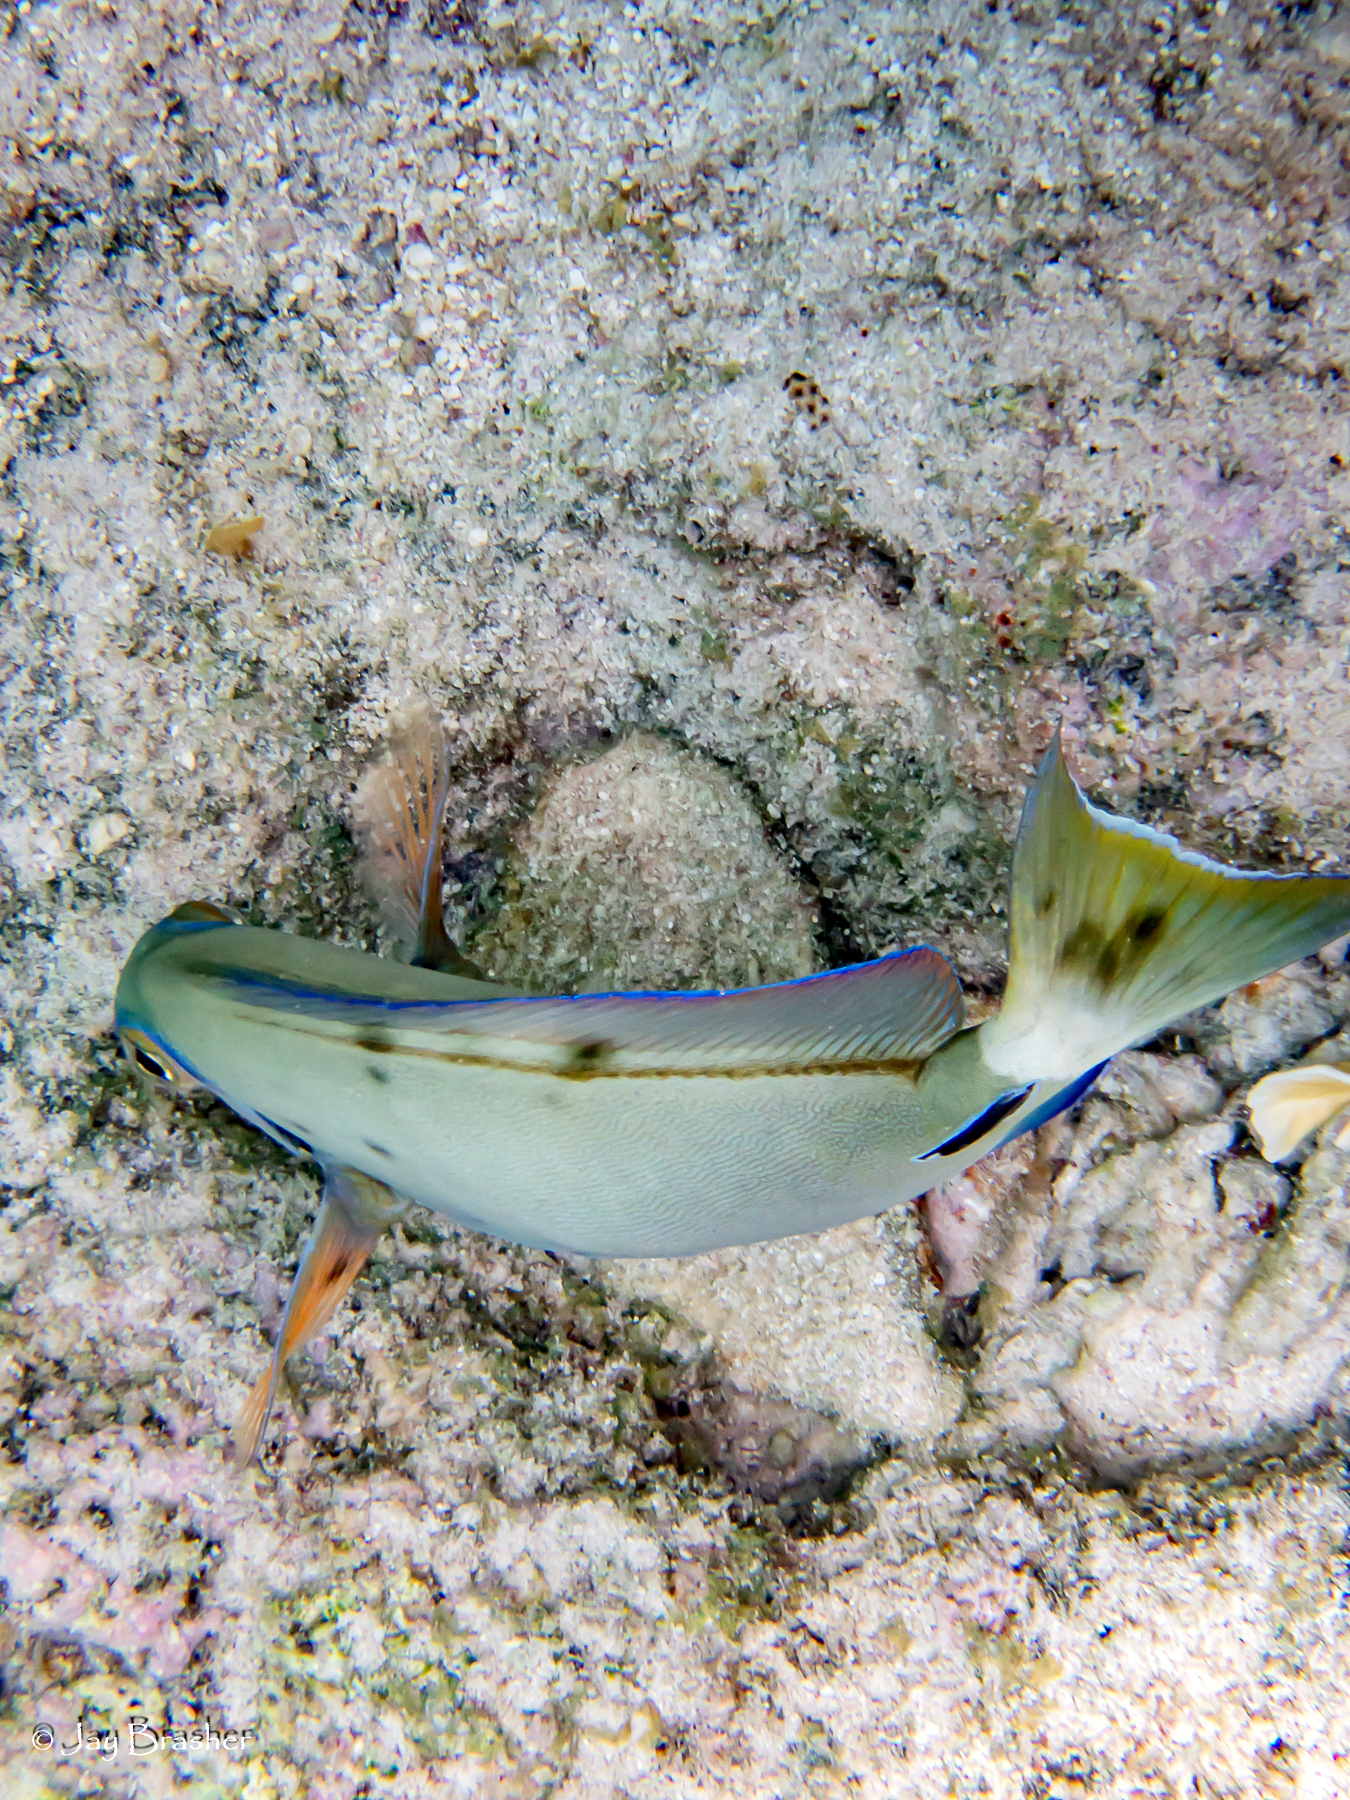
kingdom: Animalia
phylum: Chordata
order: Perciformes
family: Acanthuridae
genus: Acanthurus
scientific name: Acanthurus bahianus
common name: Ocean surgeon
